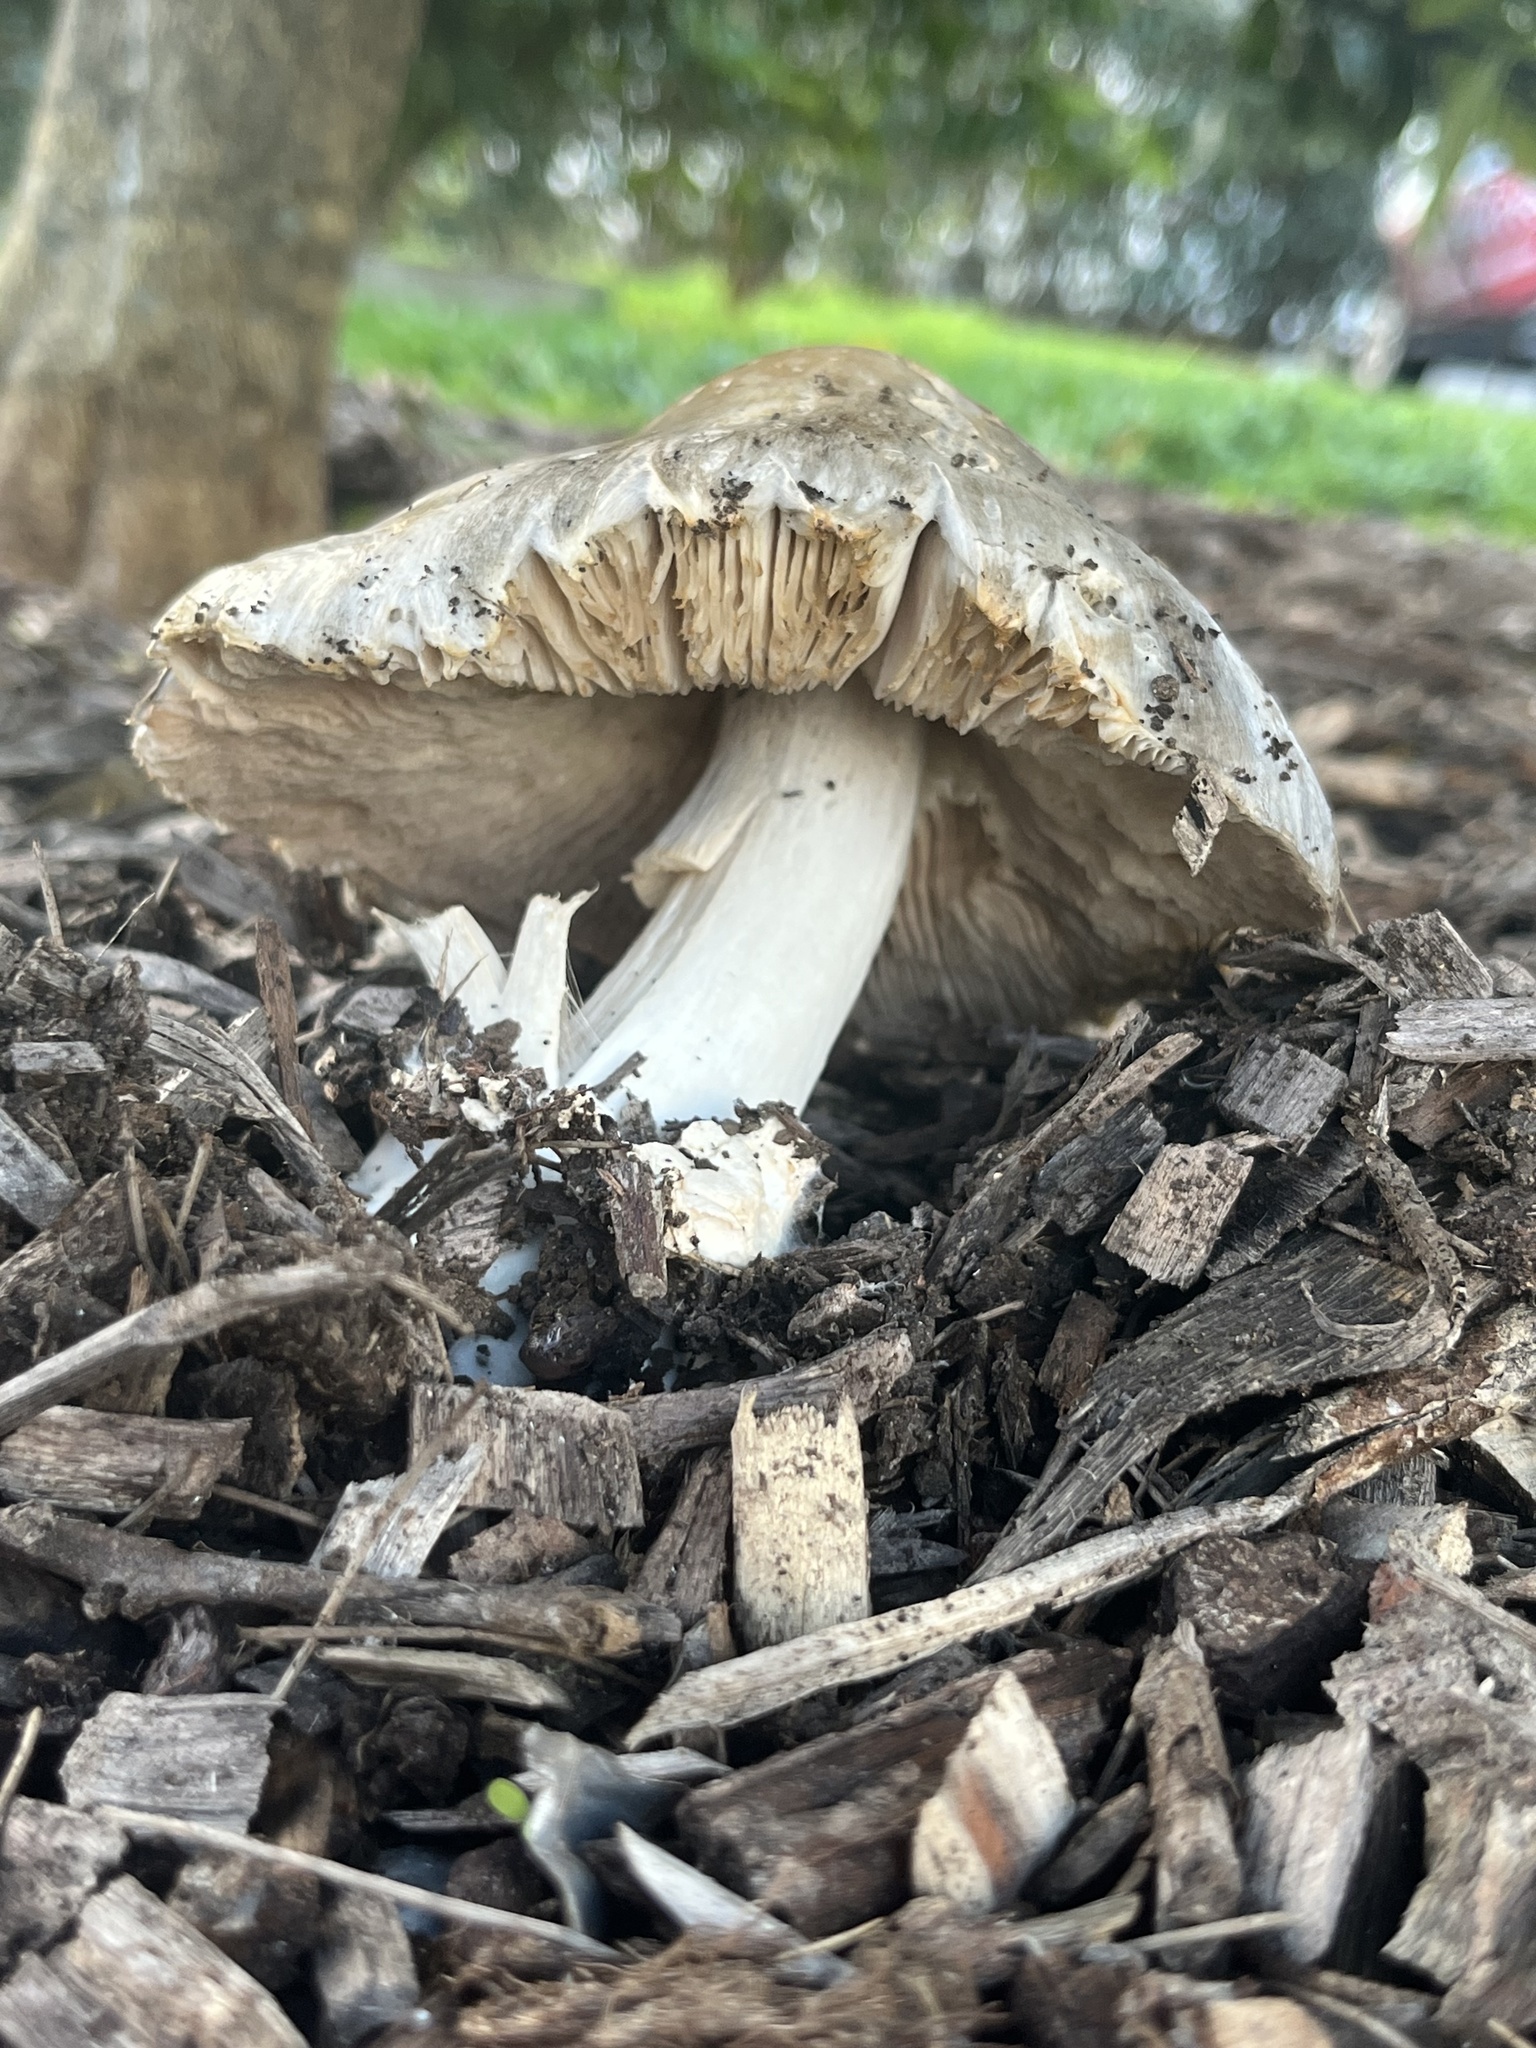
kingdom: Fungi
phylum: Basidiomycota
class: Agaricomycetes
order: Agaricales
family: Pluteaceae
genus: Volvopluteus
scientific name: Volvopluteus gloiocephalus
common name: Stubble rosegill
